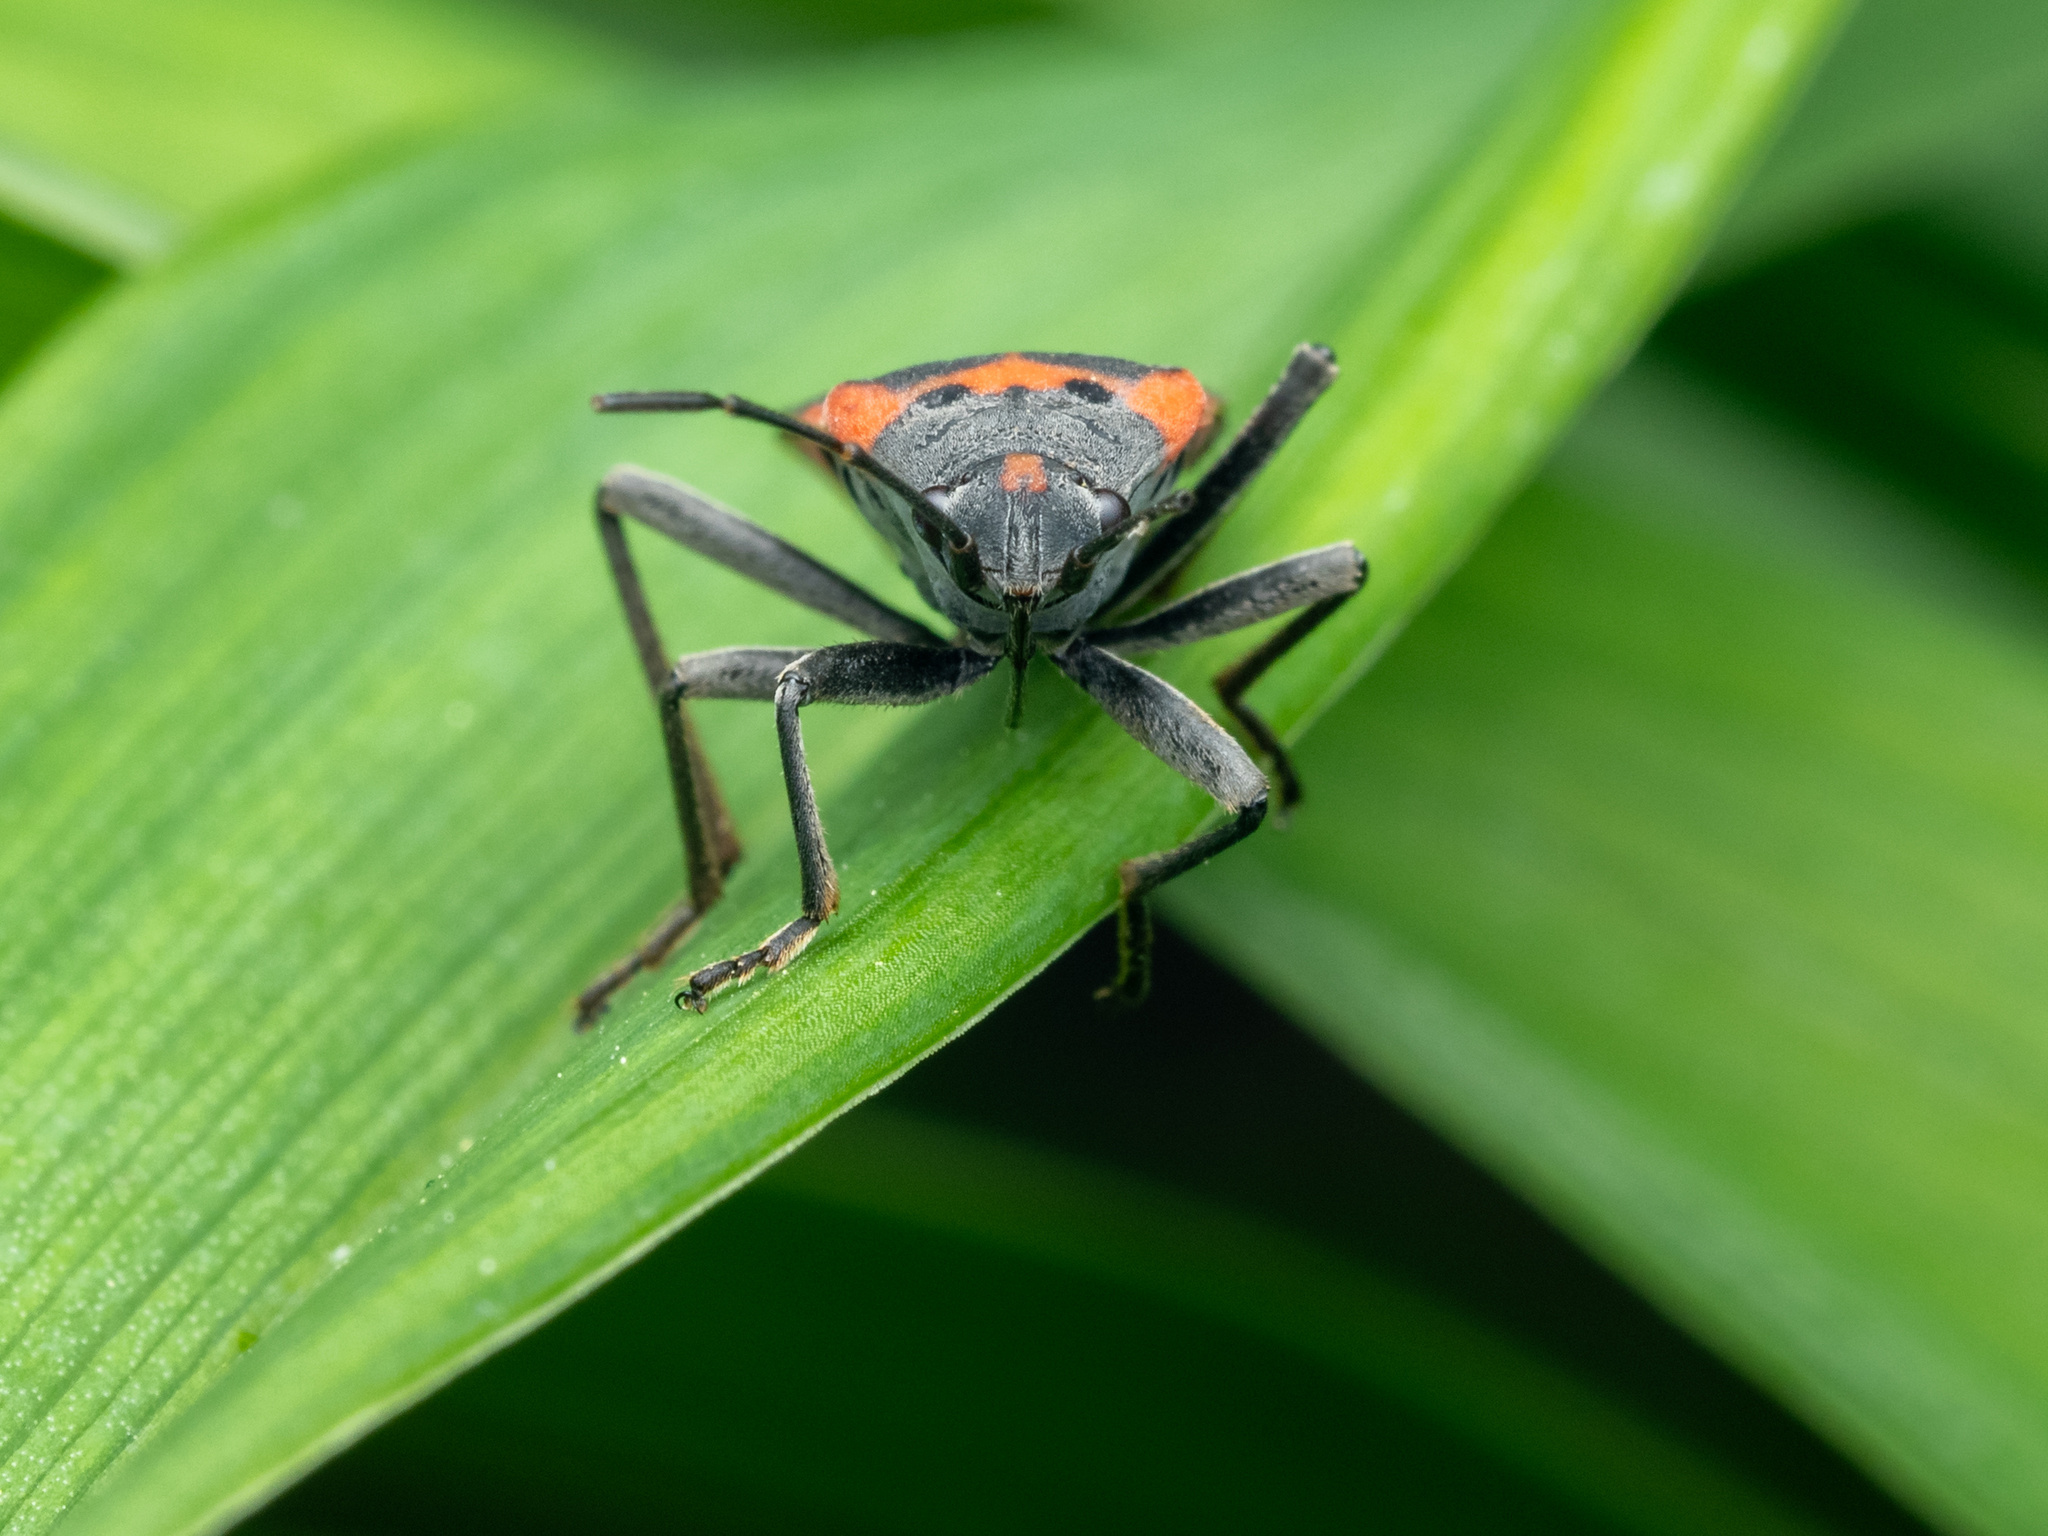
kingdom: Animalia
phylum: Arthropoda
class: Insecta
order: Hemiptera
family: Lygaeidae
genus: Lygaeus
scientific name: Lygaeus kalmii
